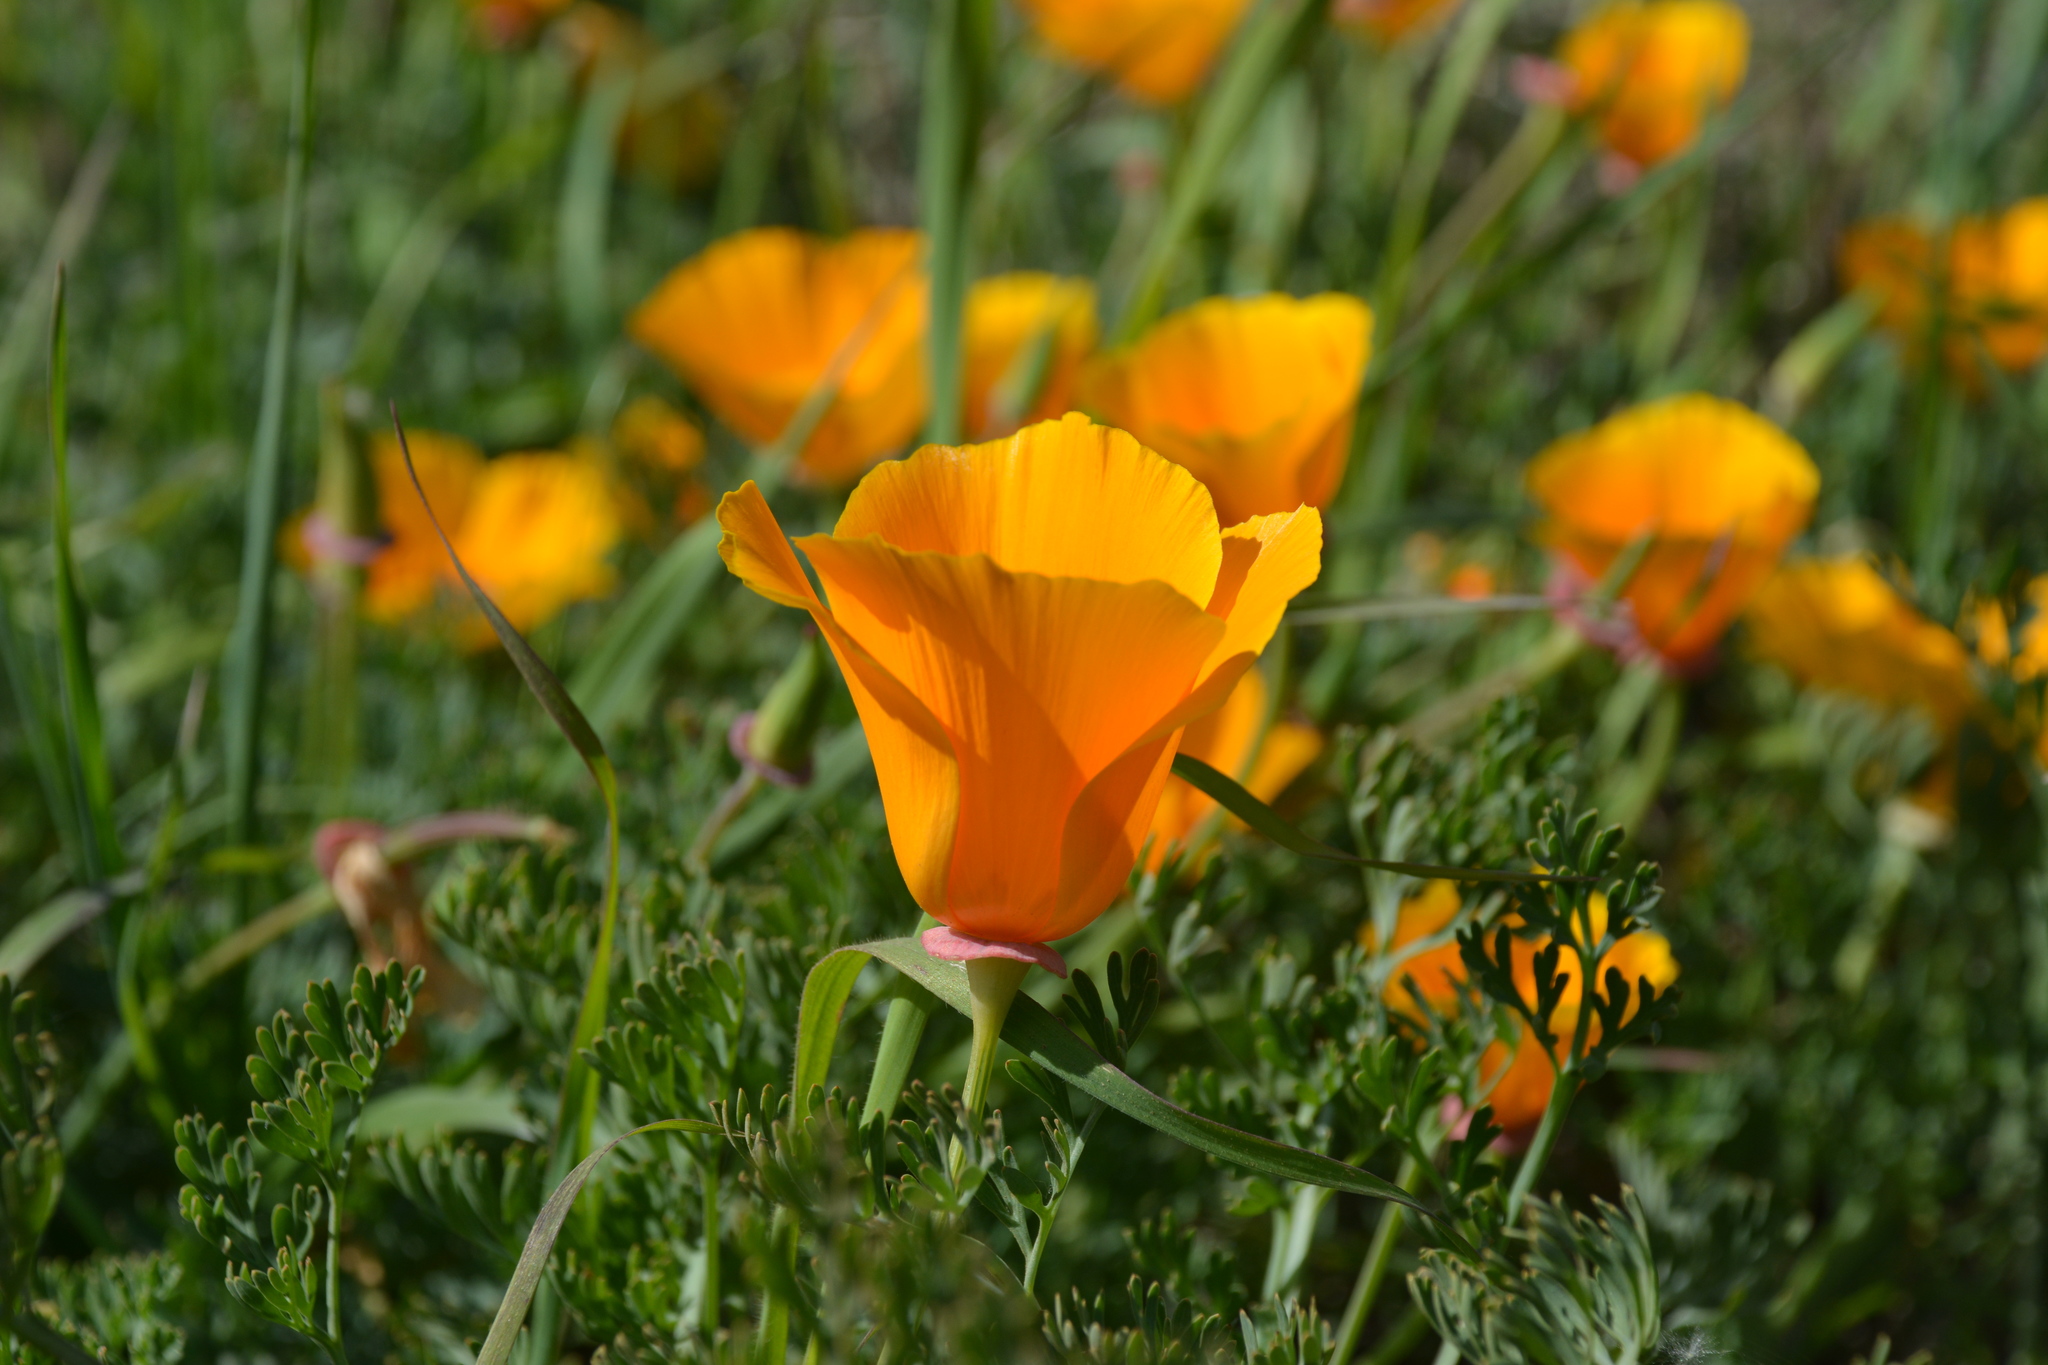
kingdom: Plantae
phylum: Tracheophyta
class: Magnoliopsida
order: Ranunculales
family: Papaveraceae
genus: Eschscholzia
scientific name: Eschscholzia californica
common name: California poppy
